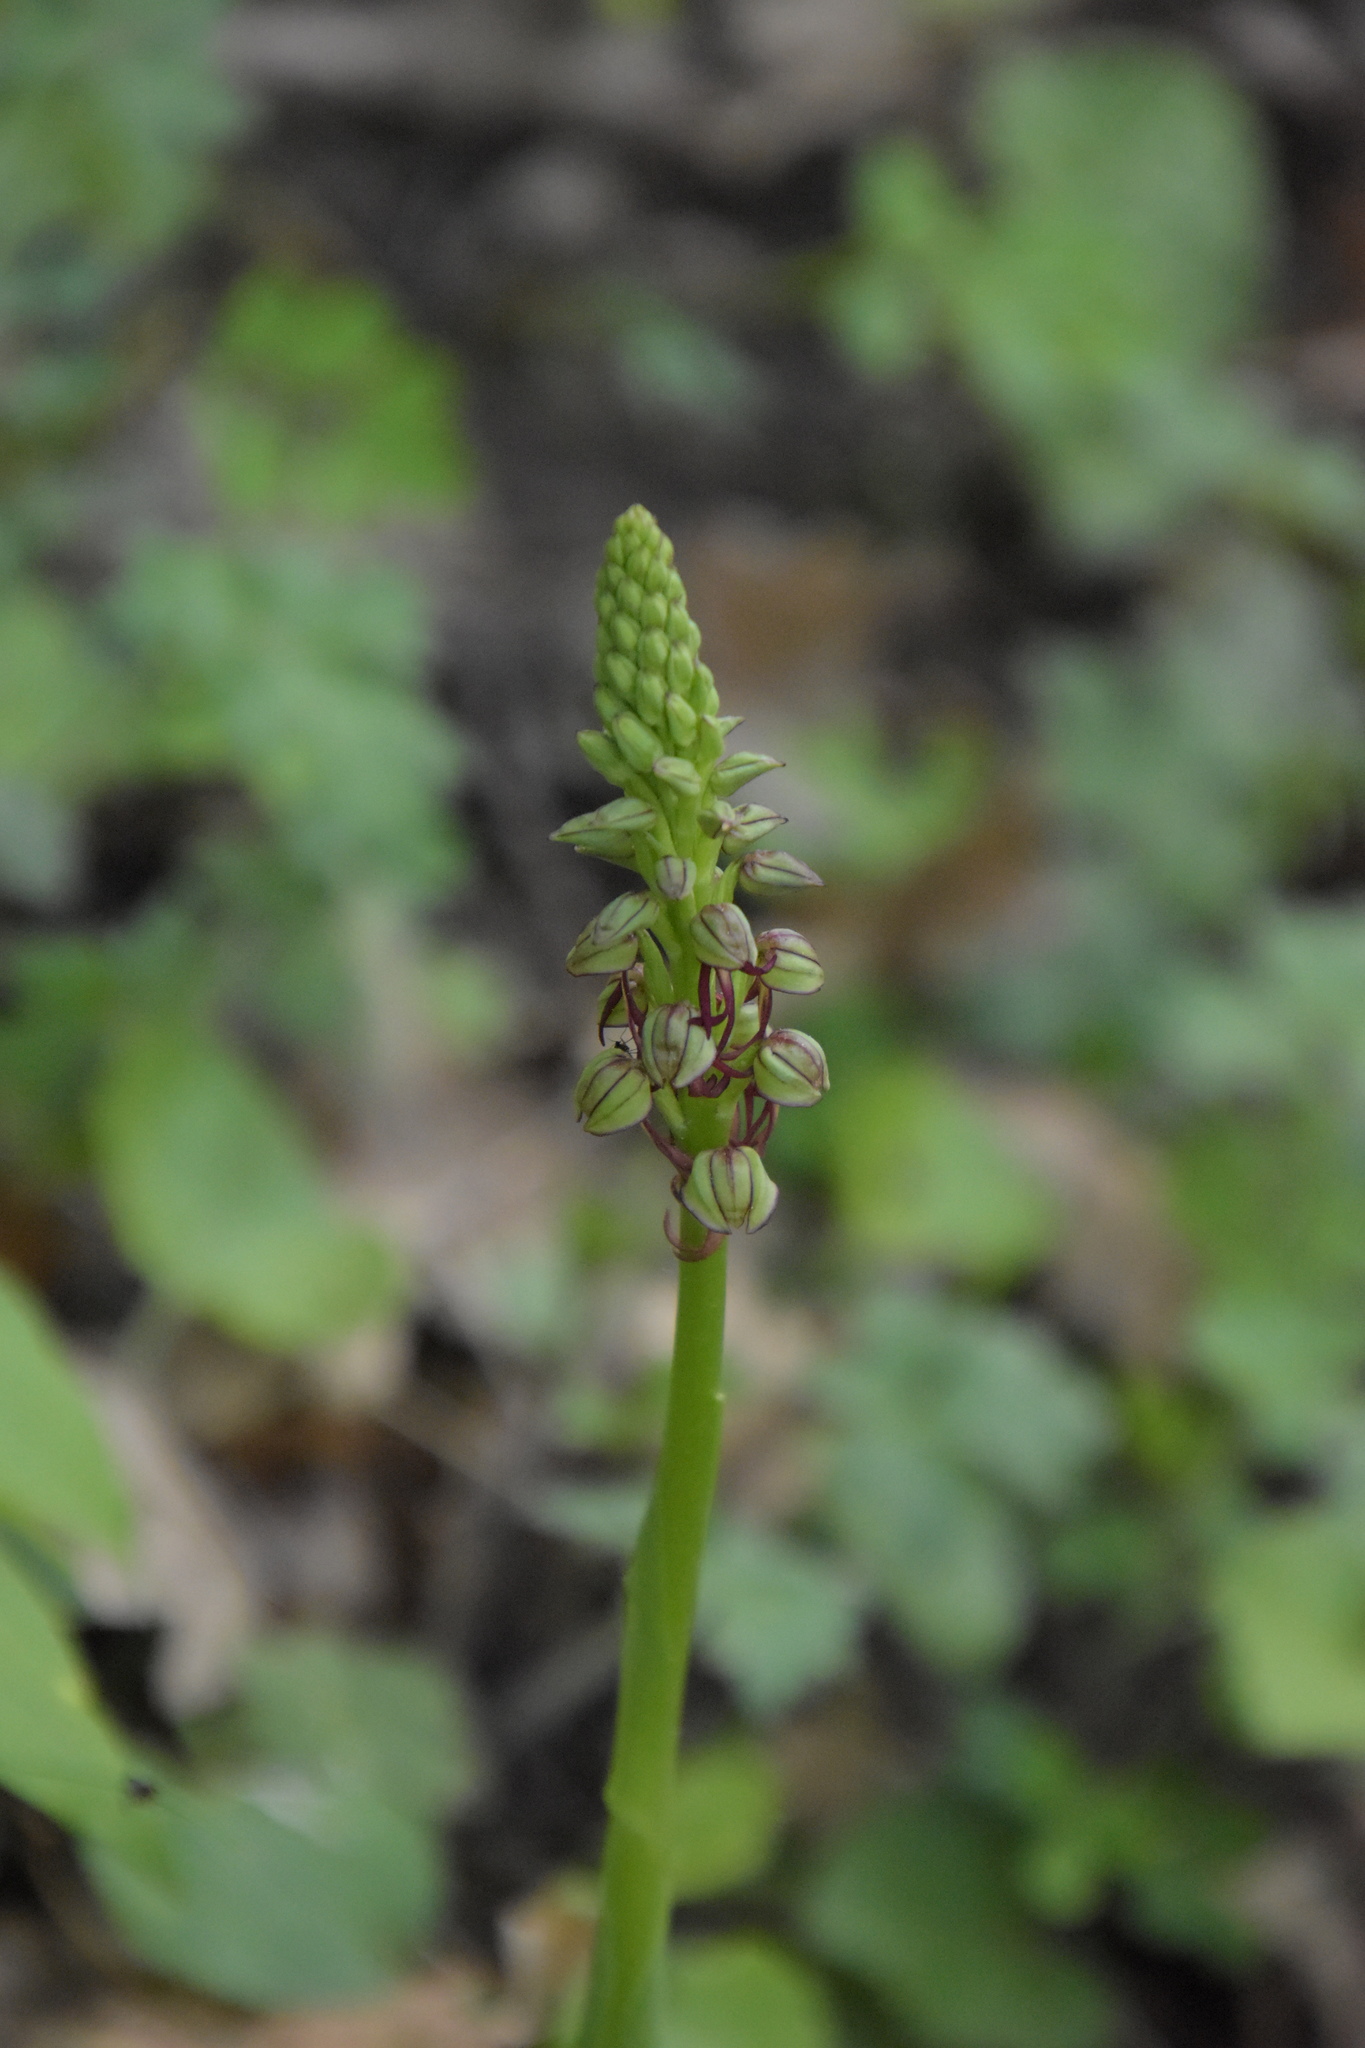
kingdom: Plantae
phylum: Tracheophyta
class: Liliopsida
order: Asparagales
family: Orchidaceae
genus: Orchis
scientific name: Orchis anthropophora
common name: Man orchid
